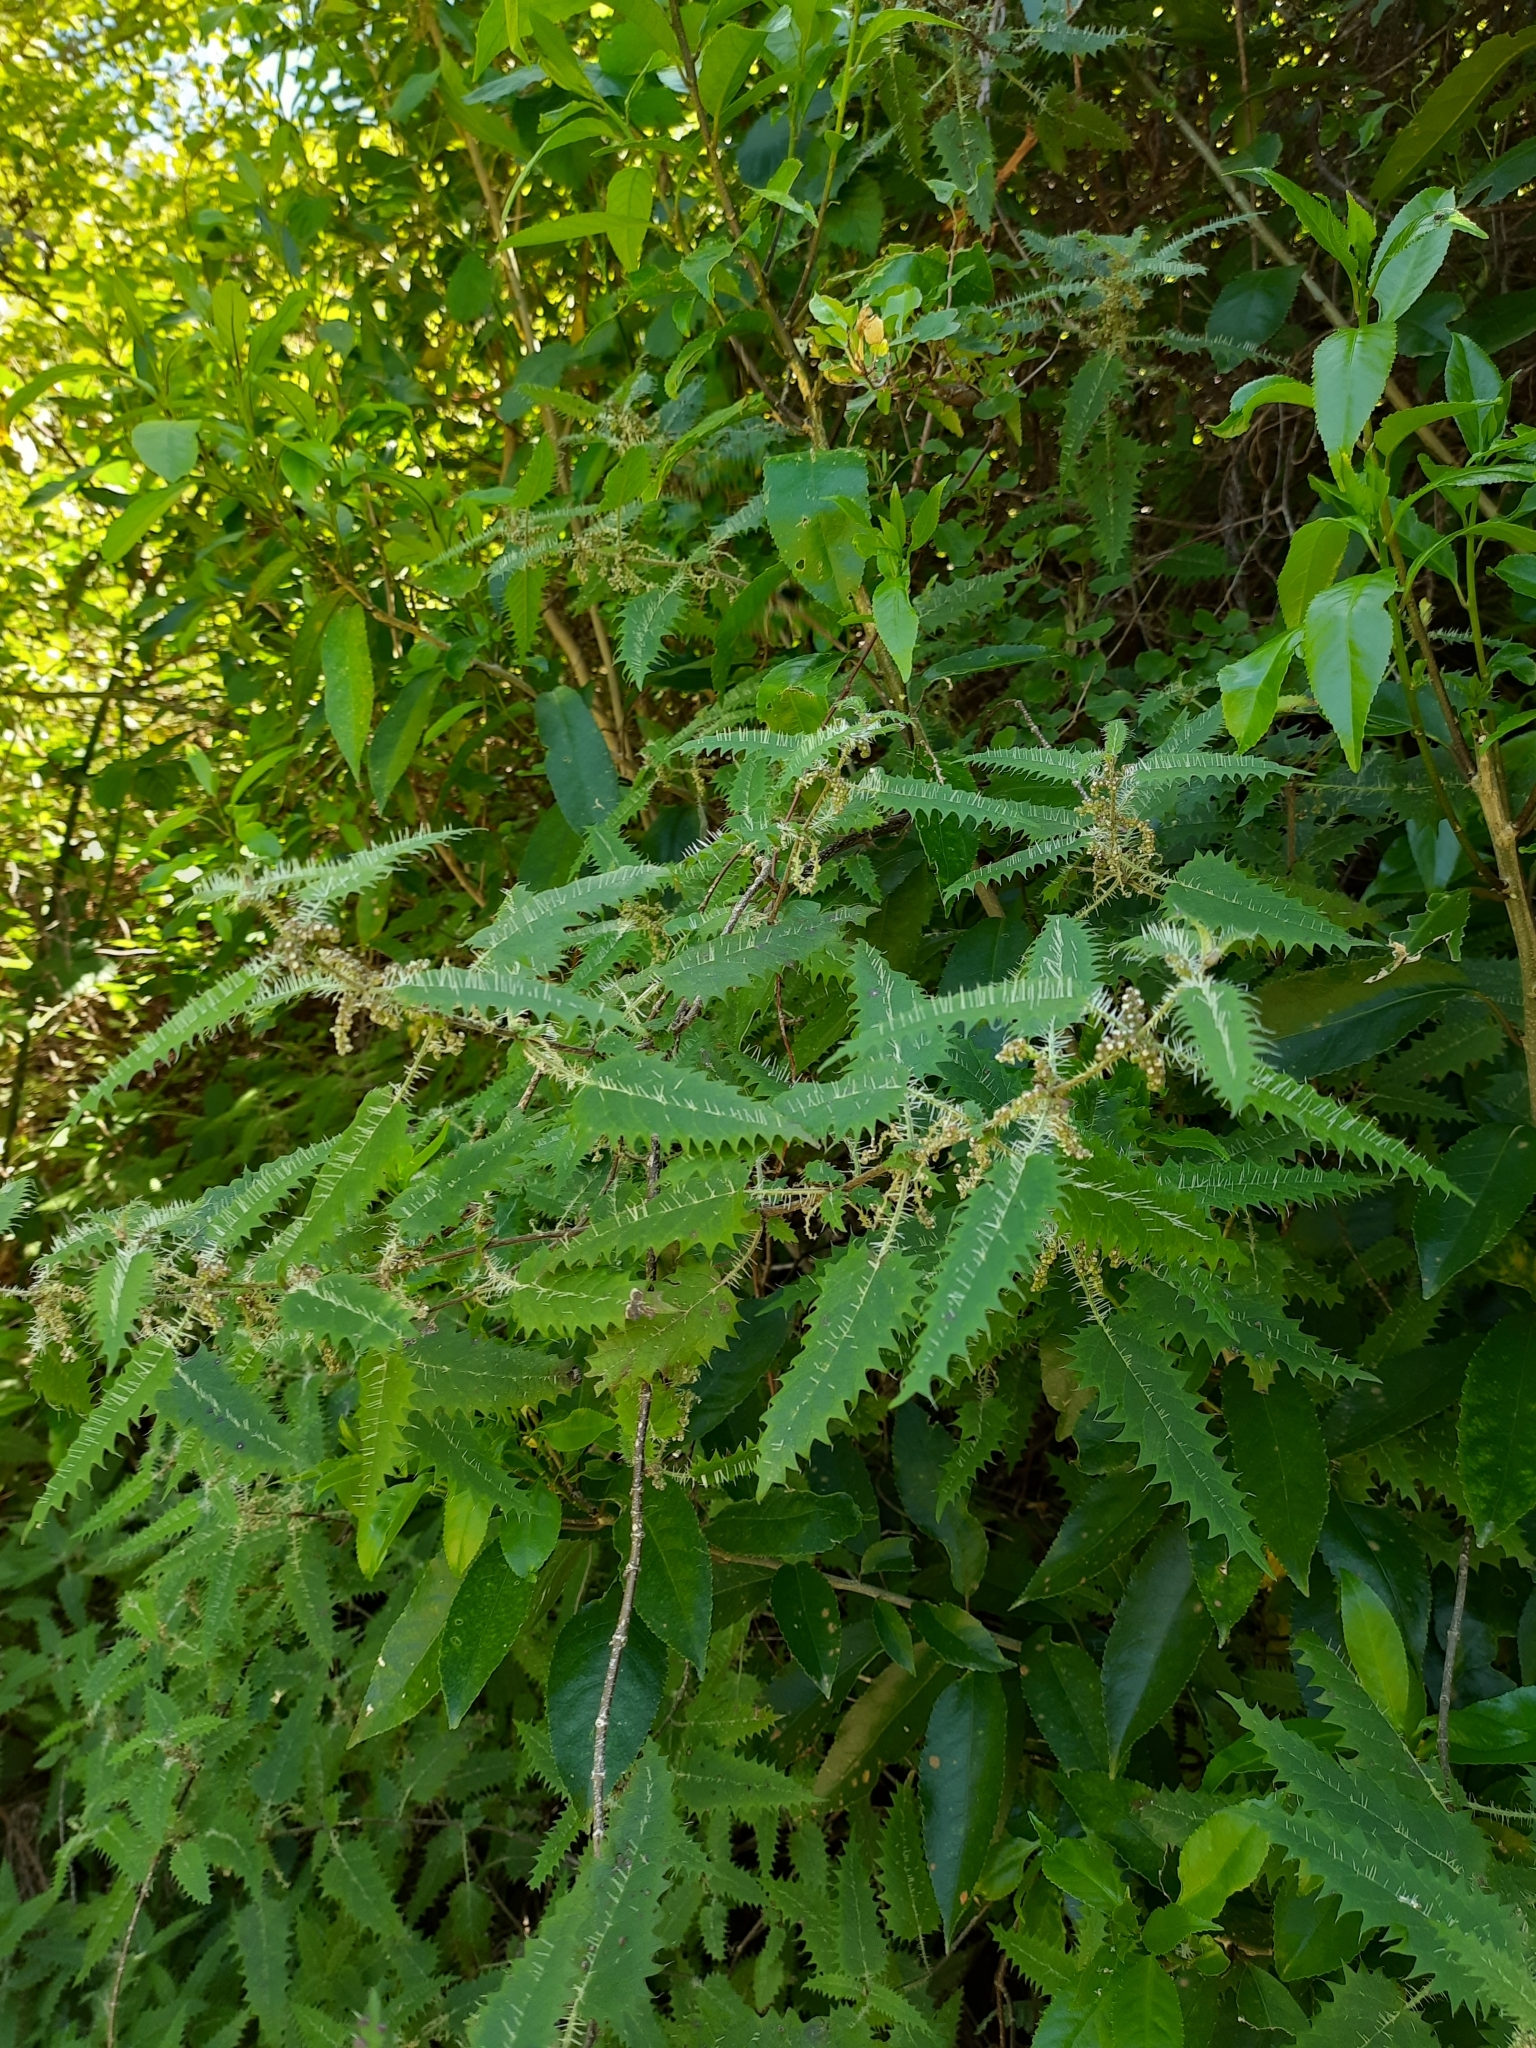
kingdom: Plantae
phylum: Tracheophyta
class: Magnoliopsida
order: Rosales
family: Urticaceae
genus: Urtica
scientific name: Urtica ferox
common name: Tree nettle
